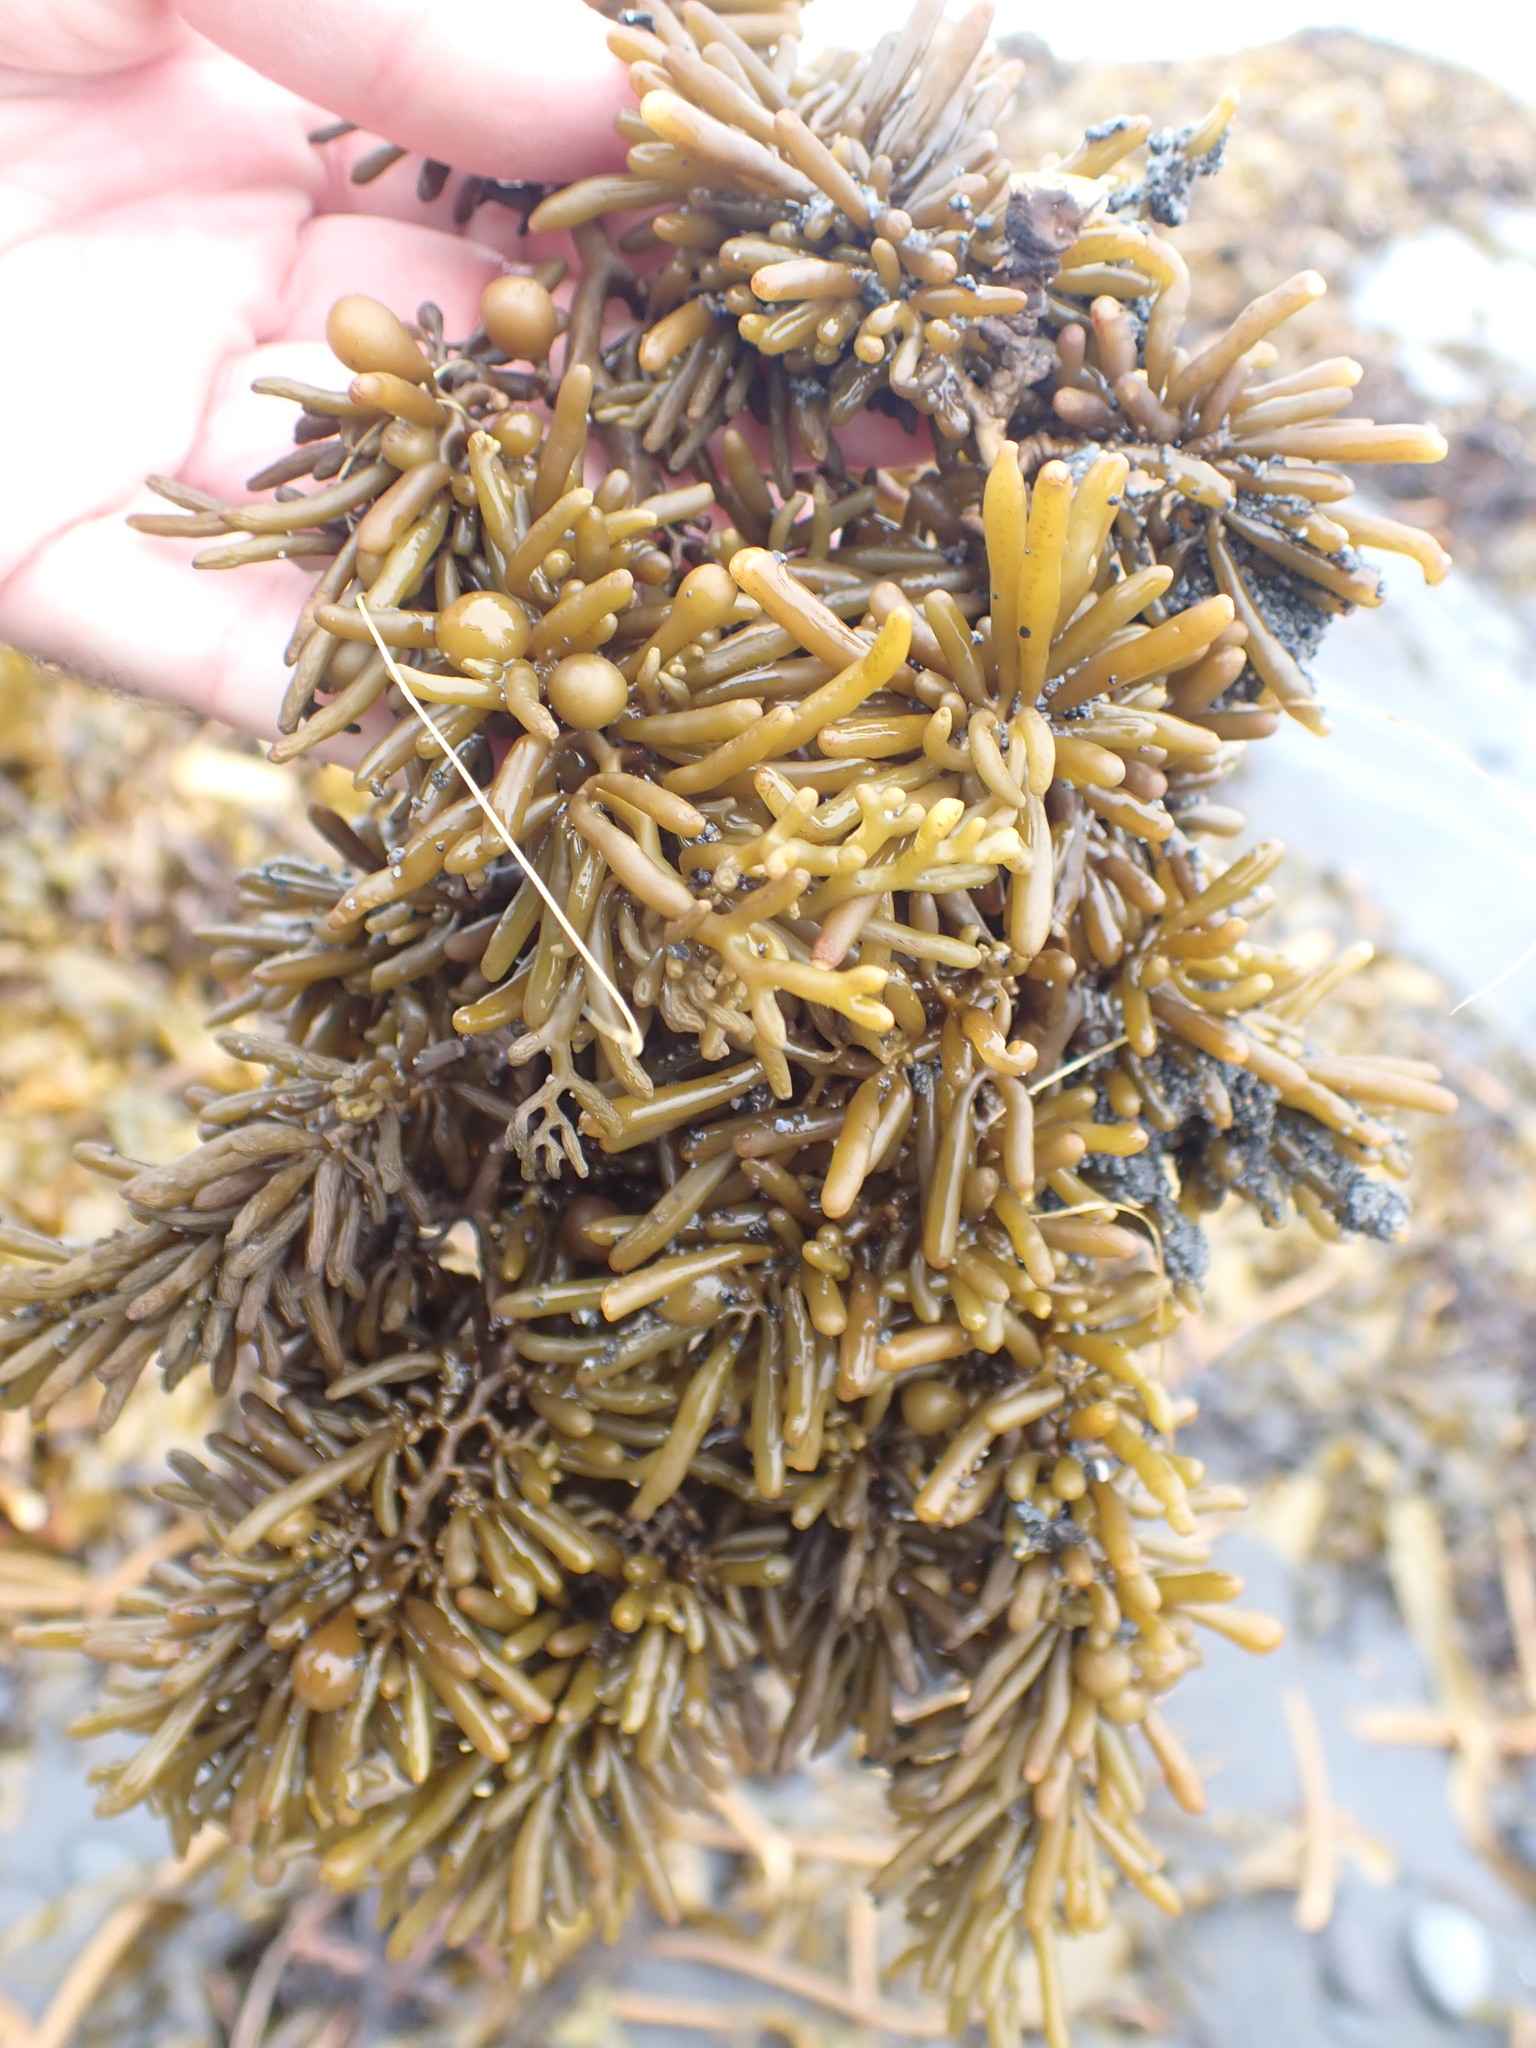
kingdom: Chromista
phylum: Ochrophyta
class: Phaeophyceae
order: Fucales
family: Sargassaceae
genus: Cystophora
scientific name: Cystophora torulosa
